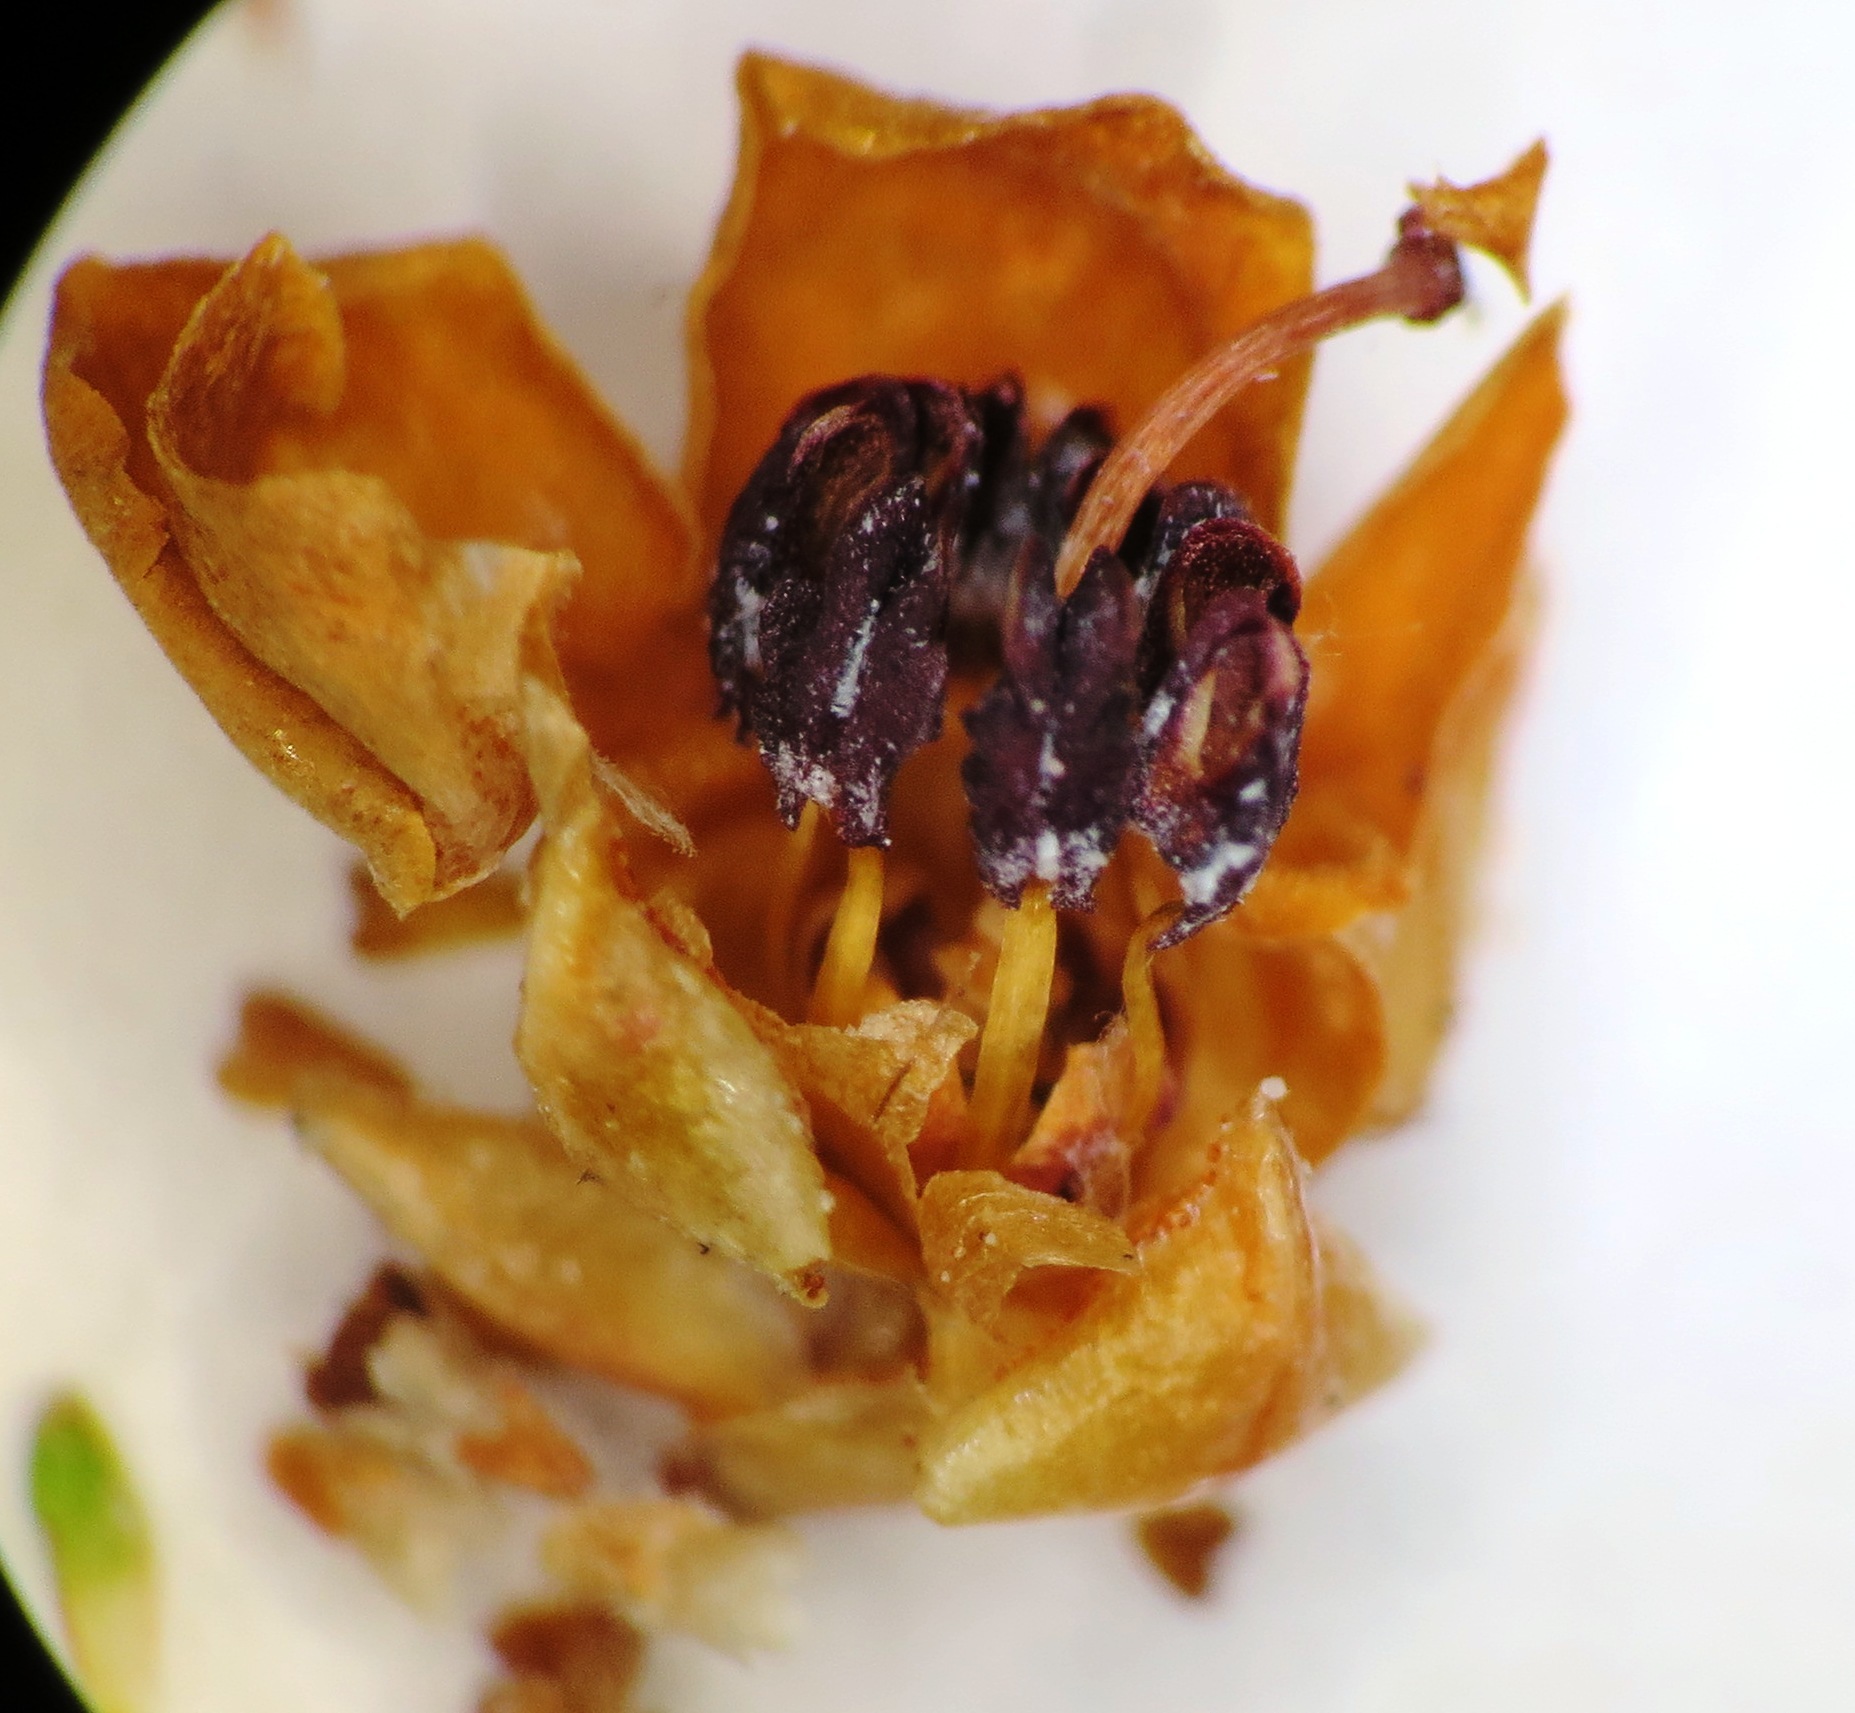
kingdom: Plantae
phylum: Tracheophyta
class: Magnoliopsida
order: Ericales
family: Ericaceae
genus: Erica
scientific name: Erica corydalis
